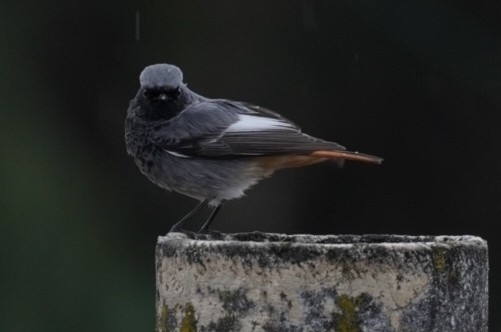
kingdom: Animalia
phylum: Chordata
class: Aves
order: Passeriformes
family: Muscicapidae
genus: Phoenicurus
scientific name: Phoenicurus ochruros
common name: Black redstart
